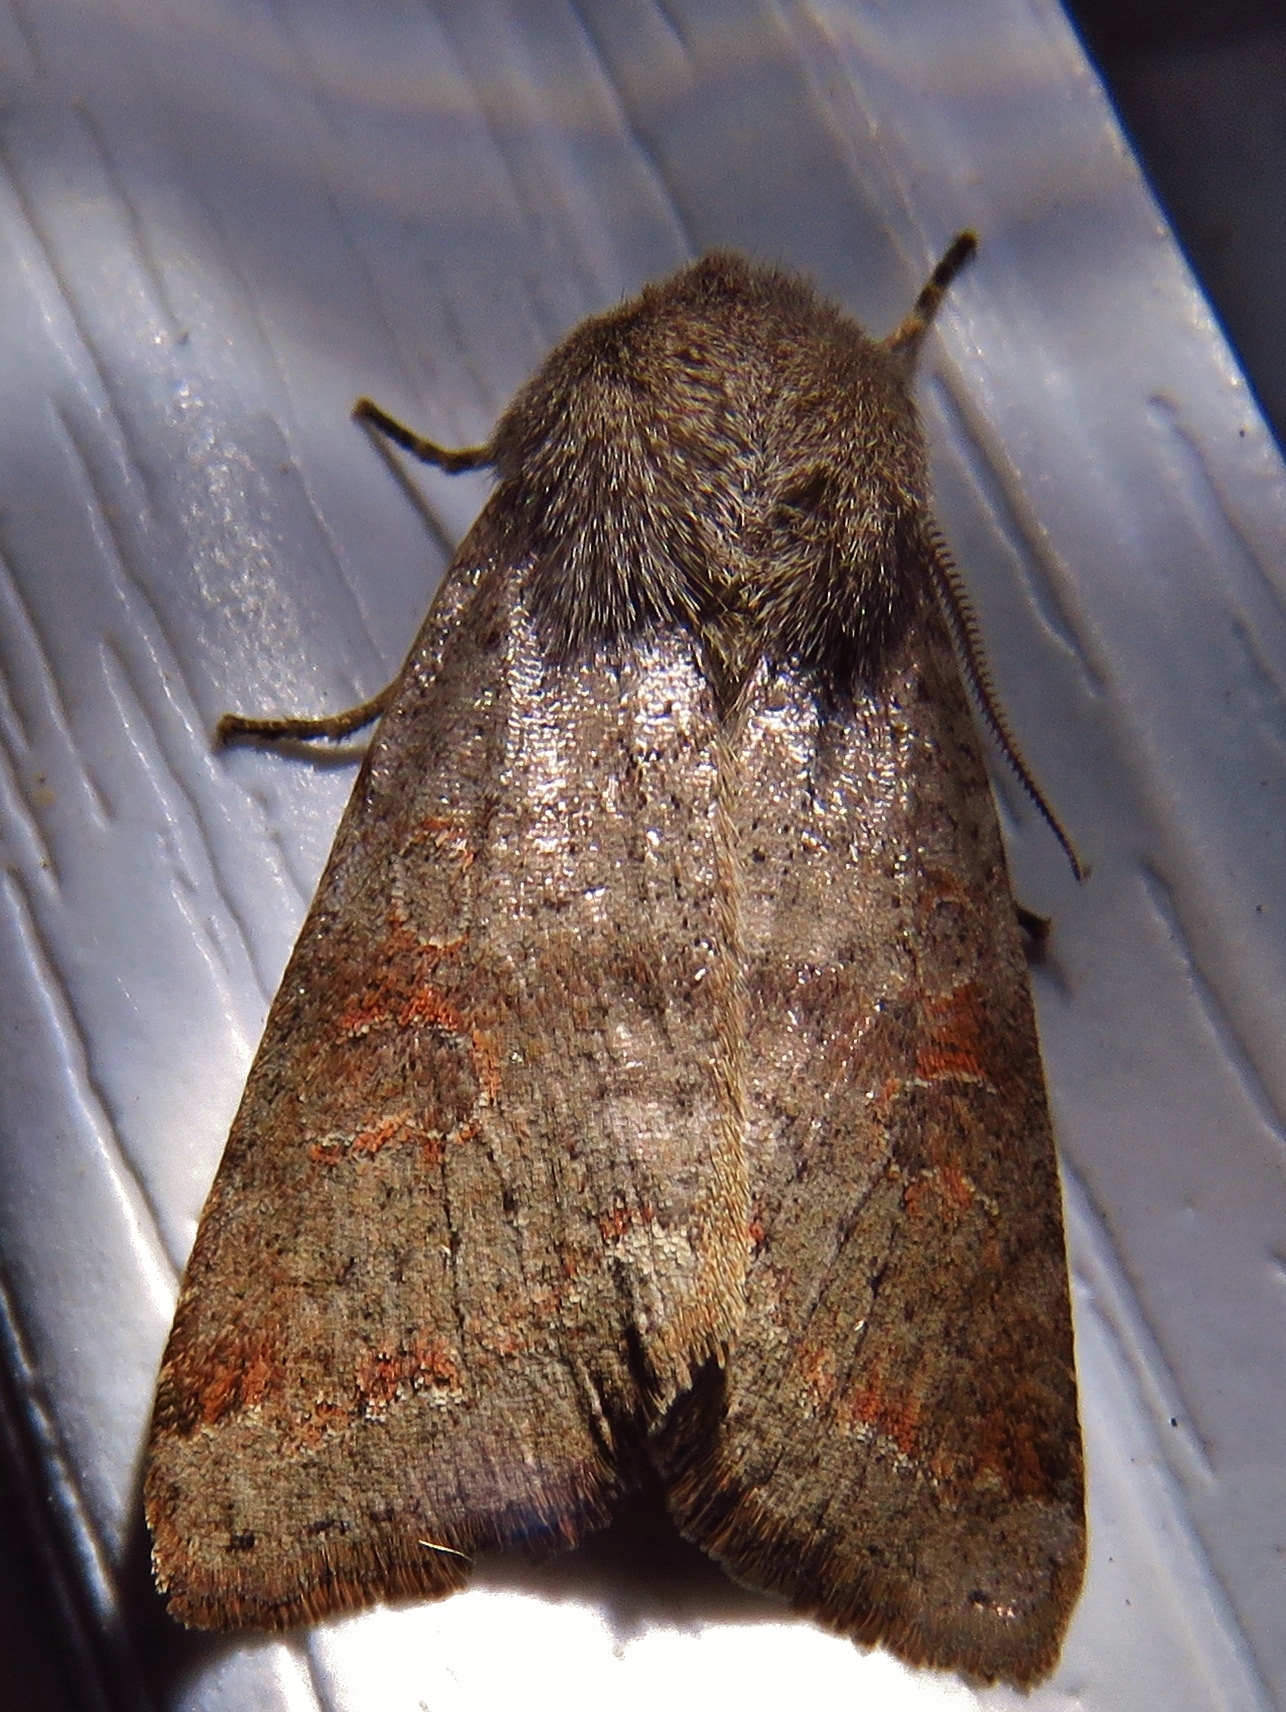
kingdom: Animalia
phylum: Arthropoda
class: Insecta
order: Lepidoptera
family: Noctuidae
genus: Orthosia
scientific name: Orthosia alurina
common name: Gray quaker
